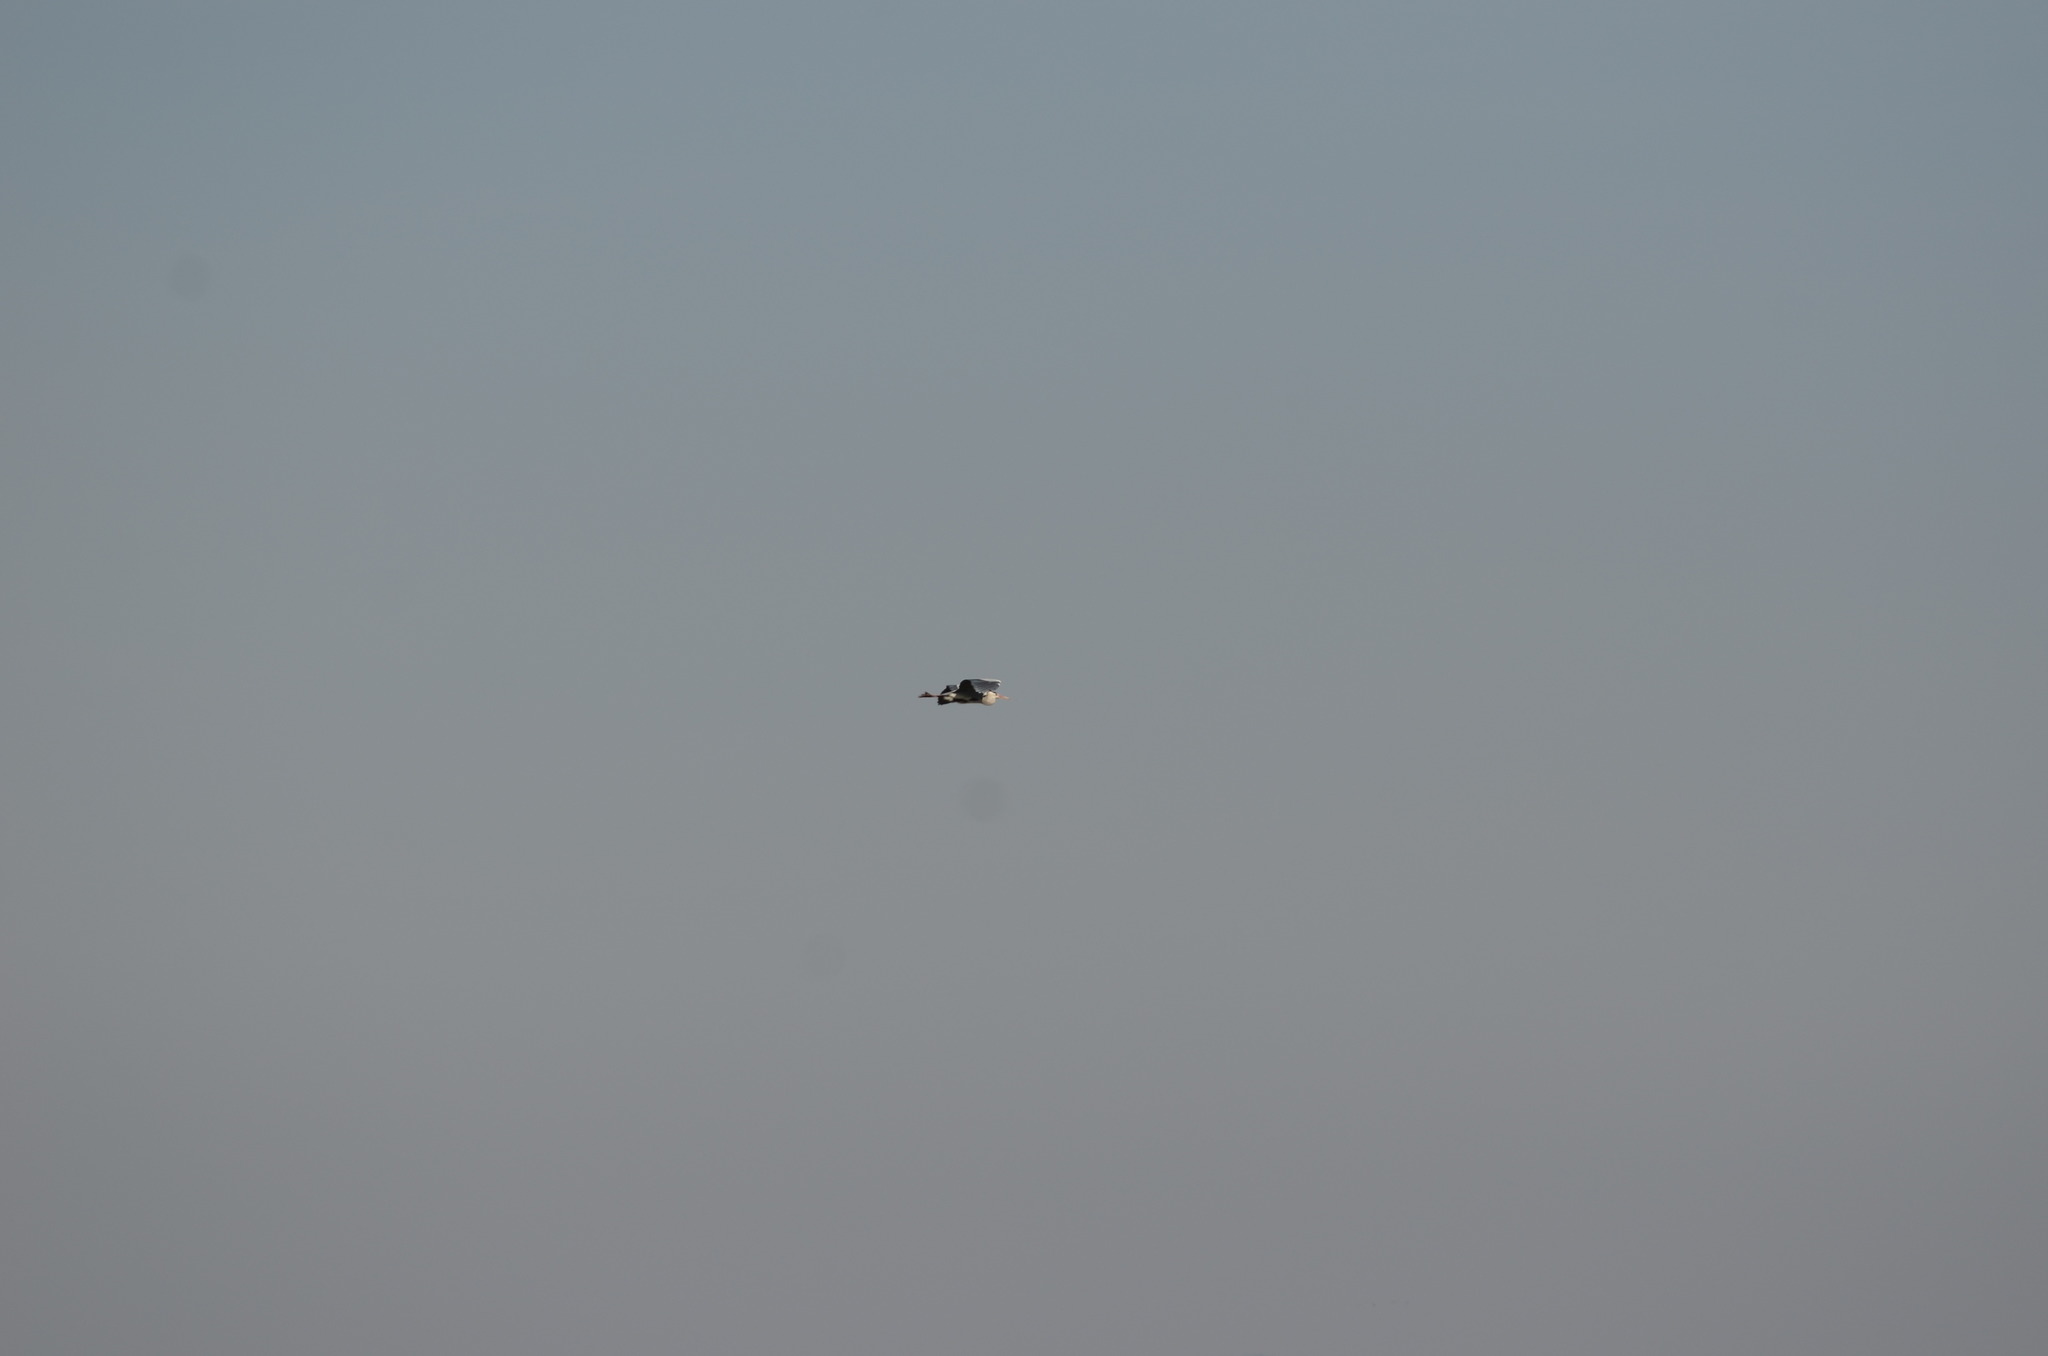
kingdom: Animalia
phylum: Chordata
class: Aves
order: Pelecaniformes
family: Ardeidae
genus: Ardea
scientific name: Ardea cinerea
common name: Grey heron
